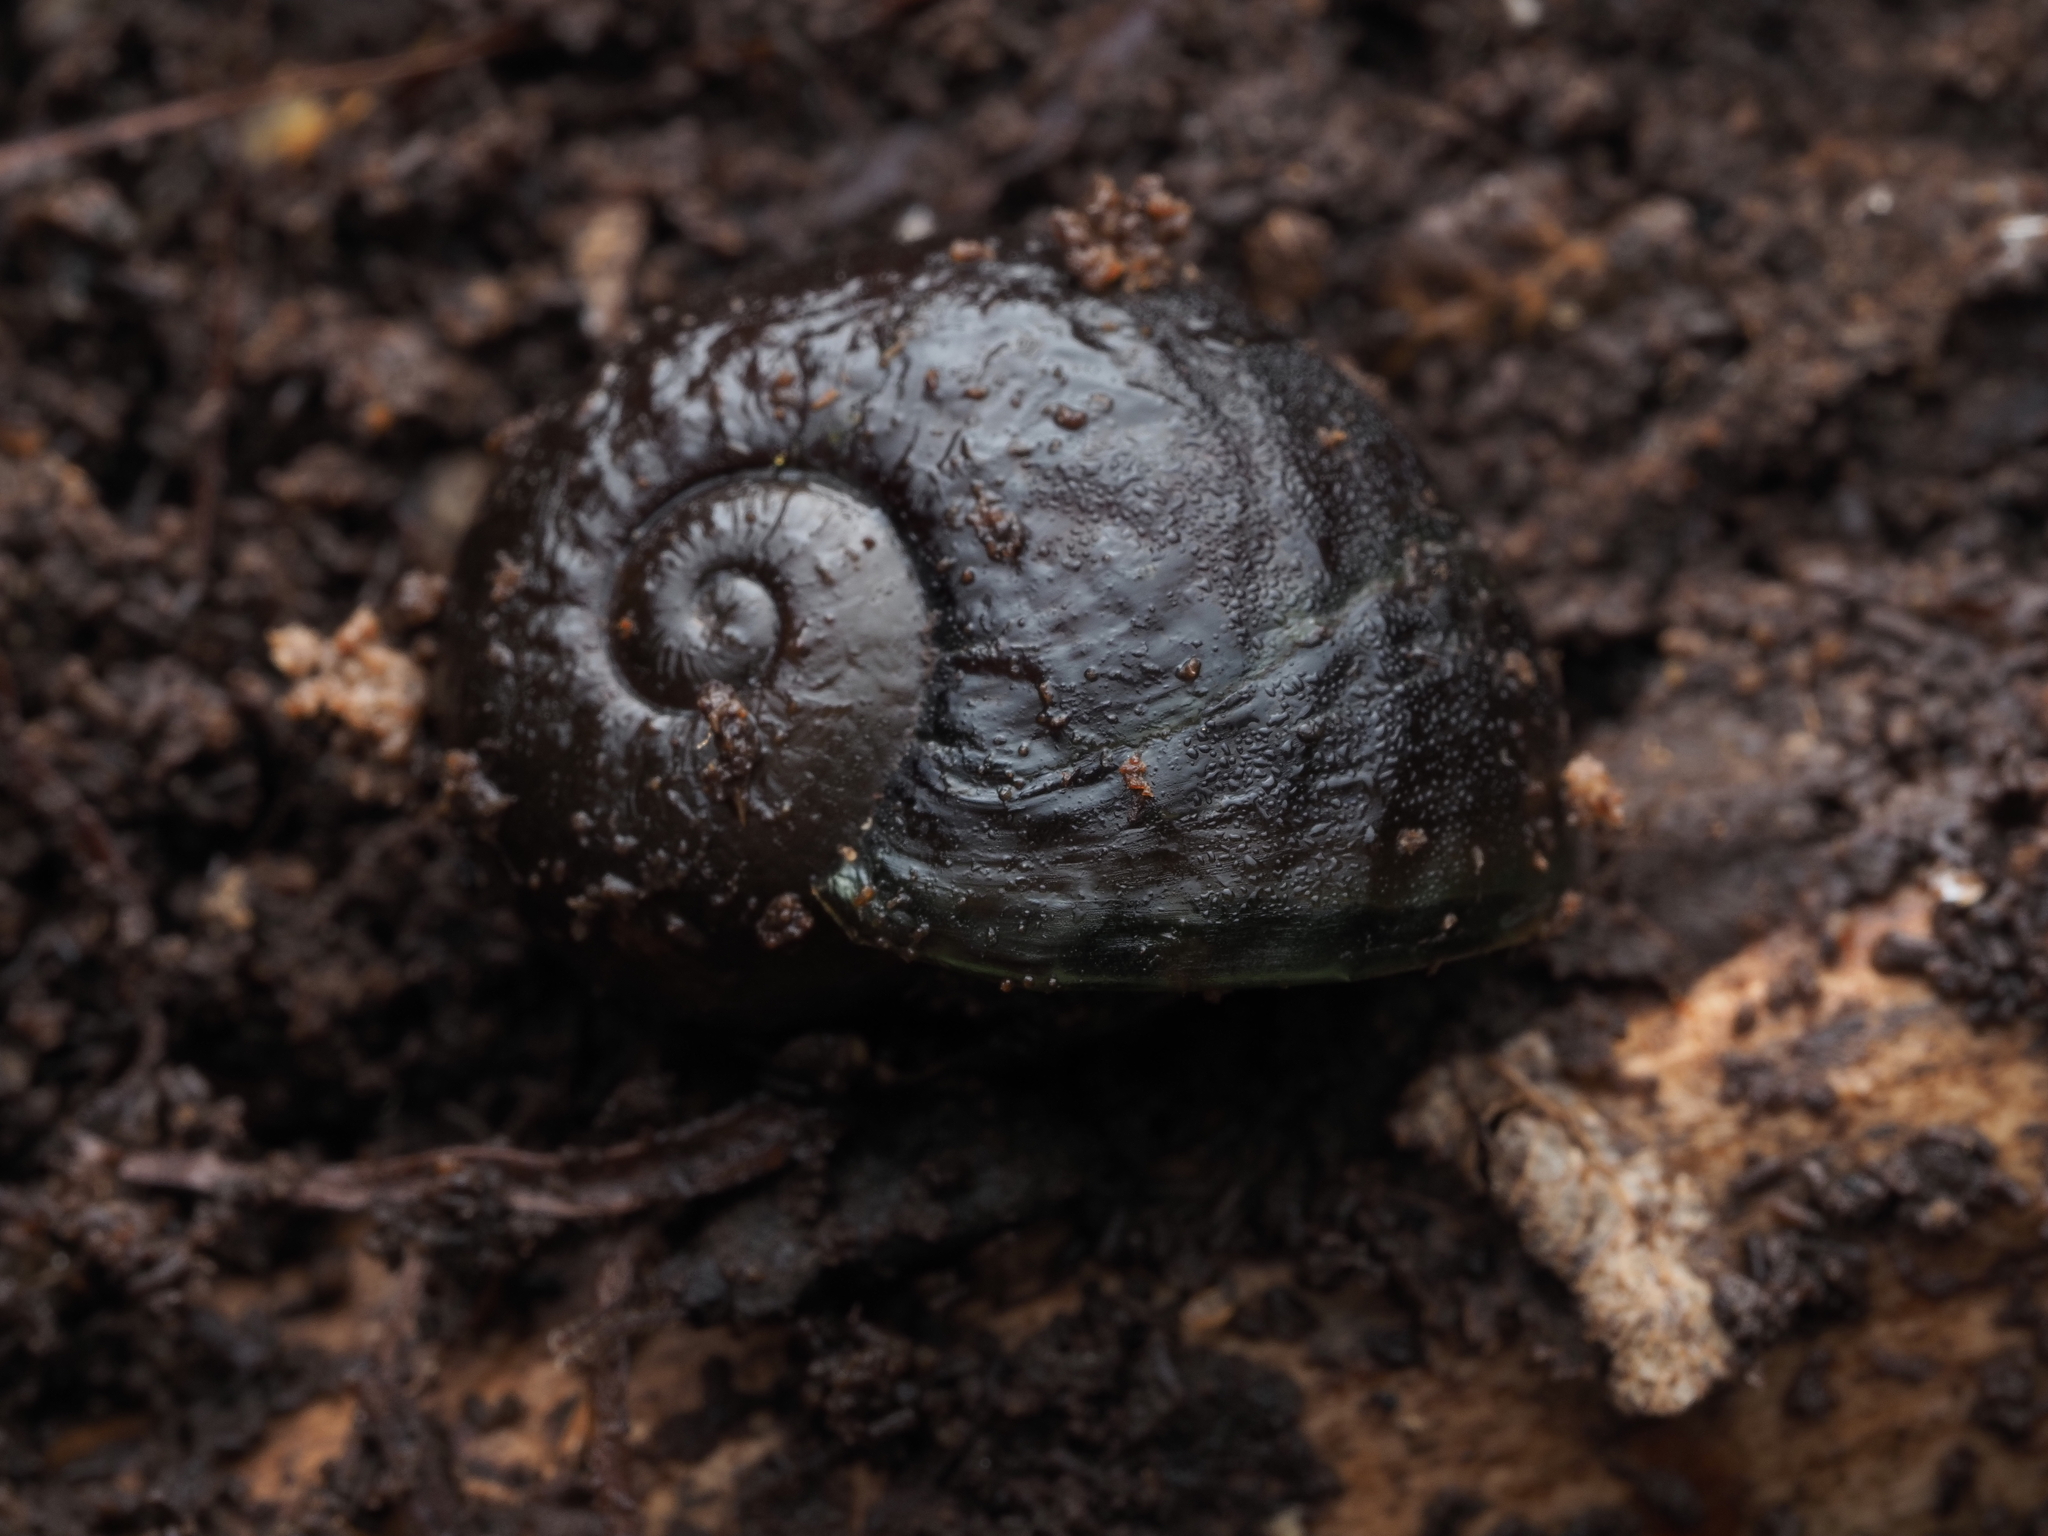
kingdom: Animalia
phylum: Mollusca
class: Gastropoda
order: Stylommatophora
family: Rhytididae
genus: Paryphanta
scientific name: Paryphanta busbyi
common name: Kauri snail
